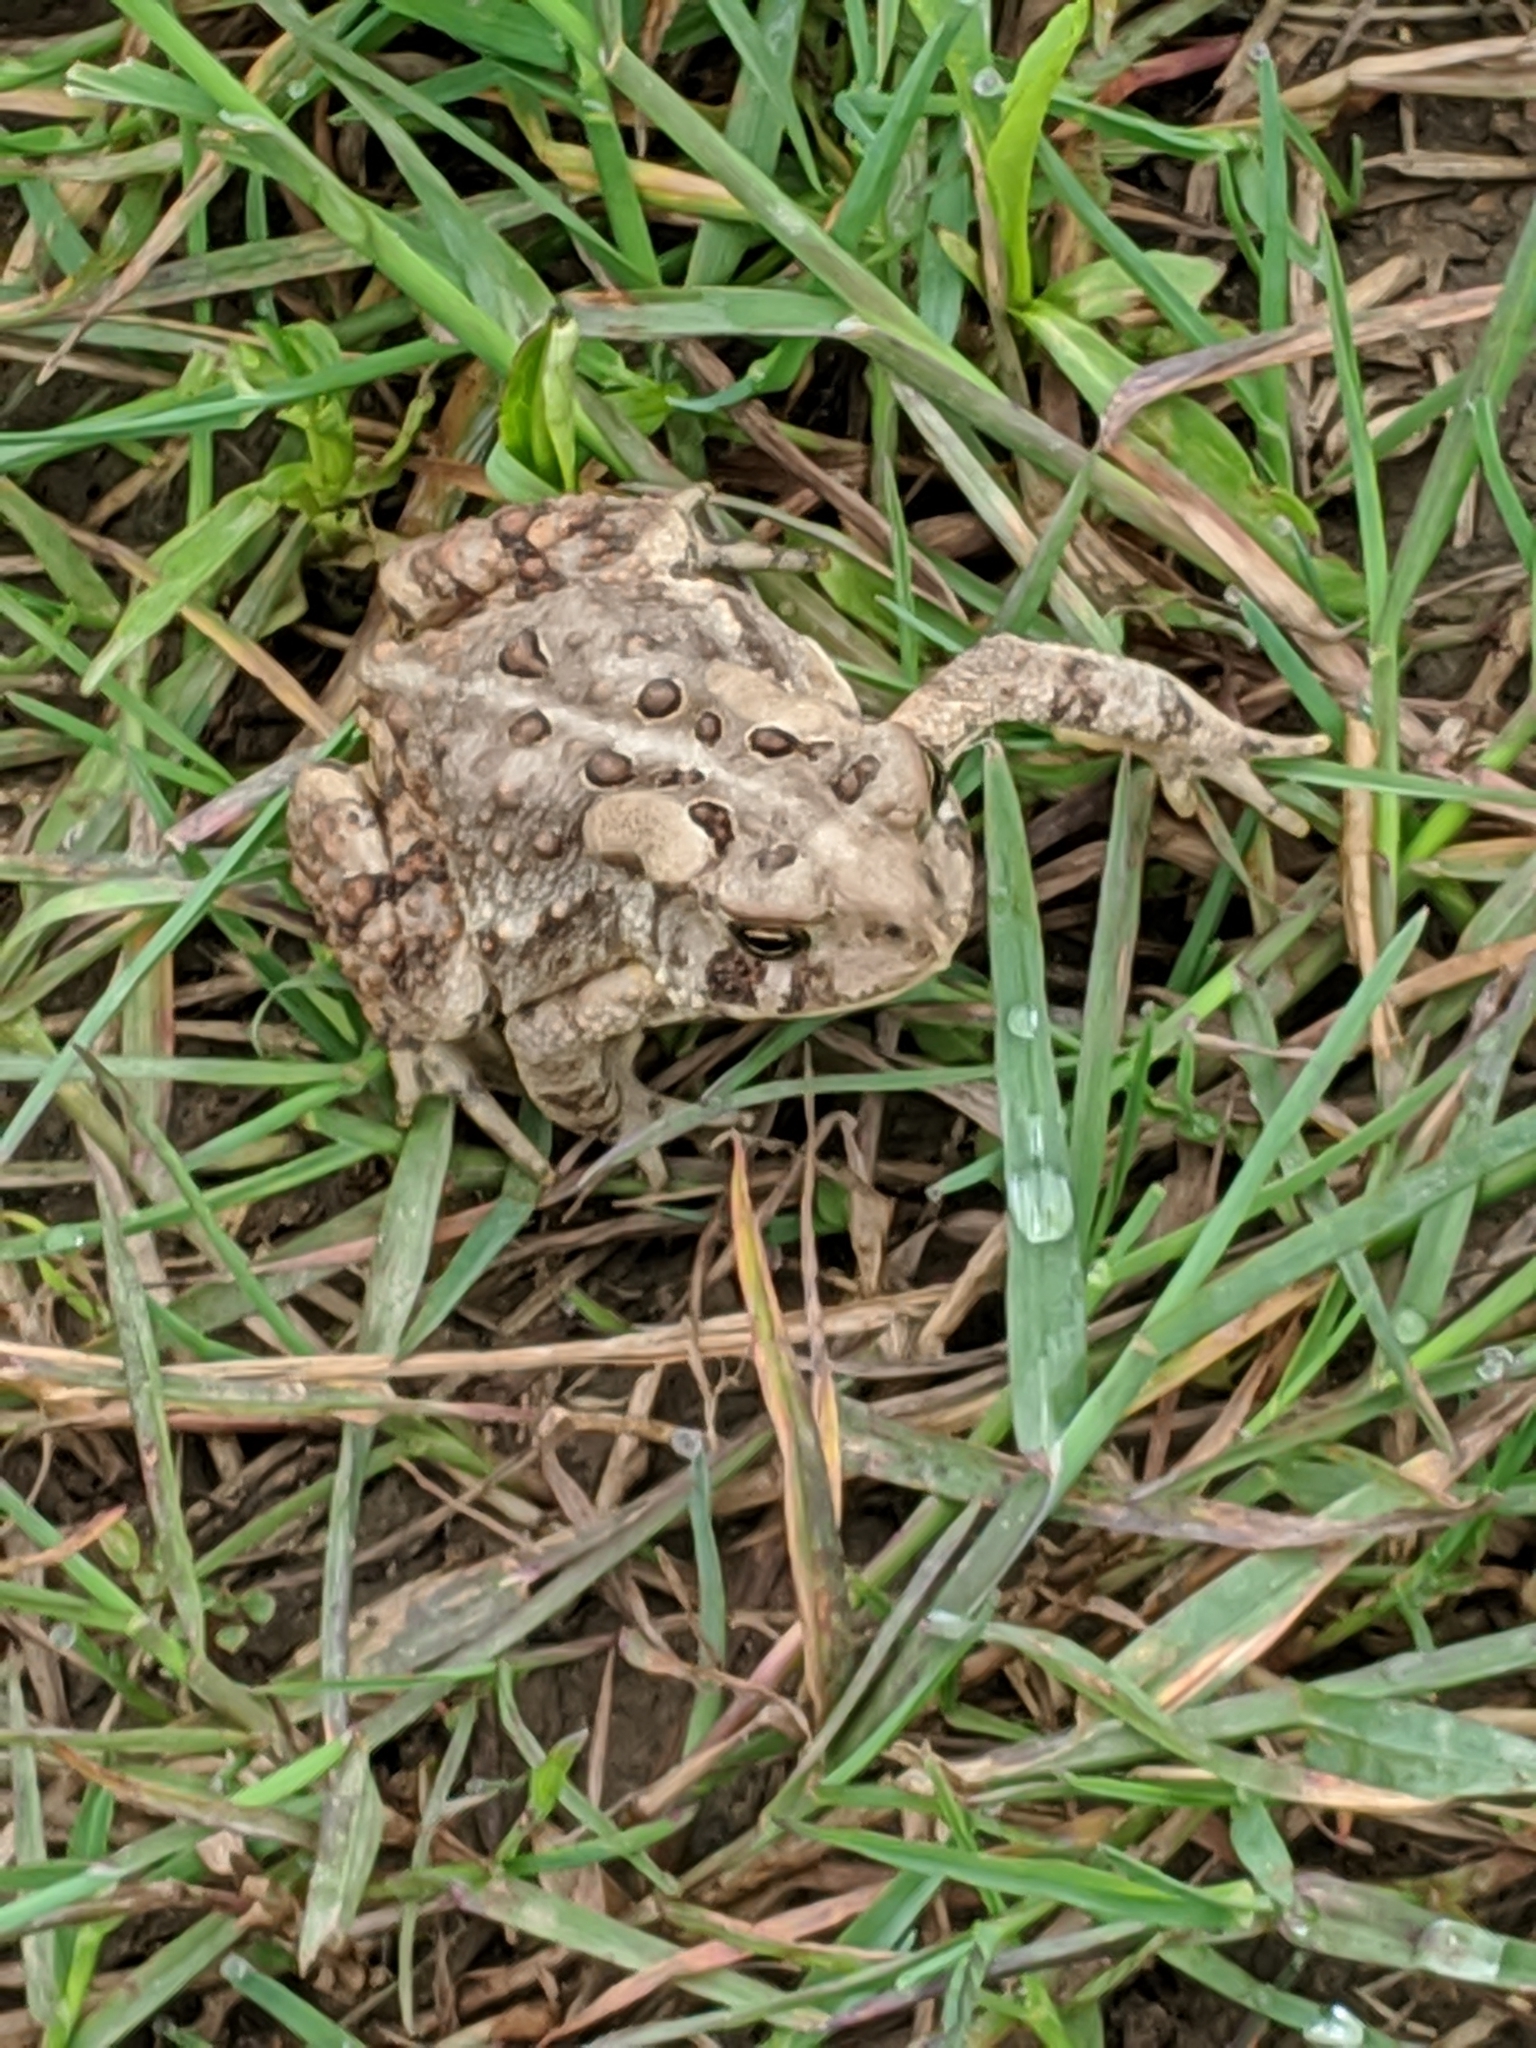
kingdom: Animalia
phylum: Chordata
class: Amphibia
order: Anura
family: Bufonidae
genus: Anaxyrus
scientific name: Anaxyrus americanus
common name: American toad
